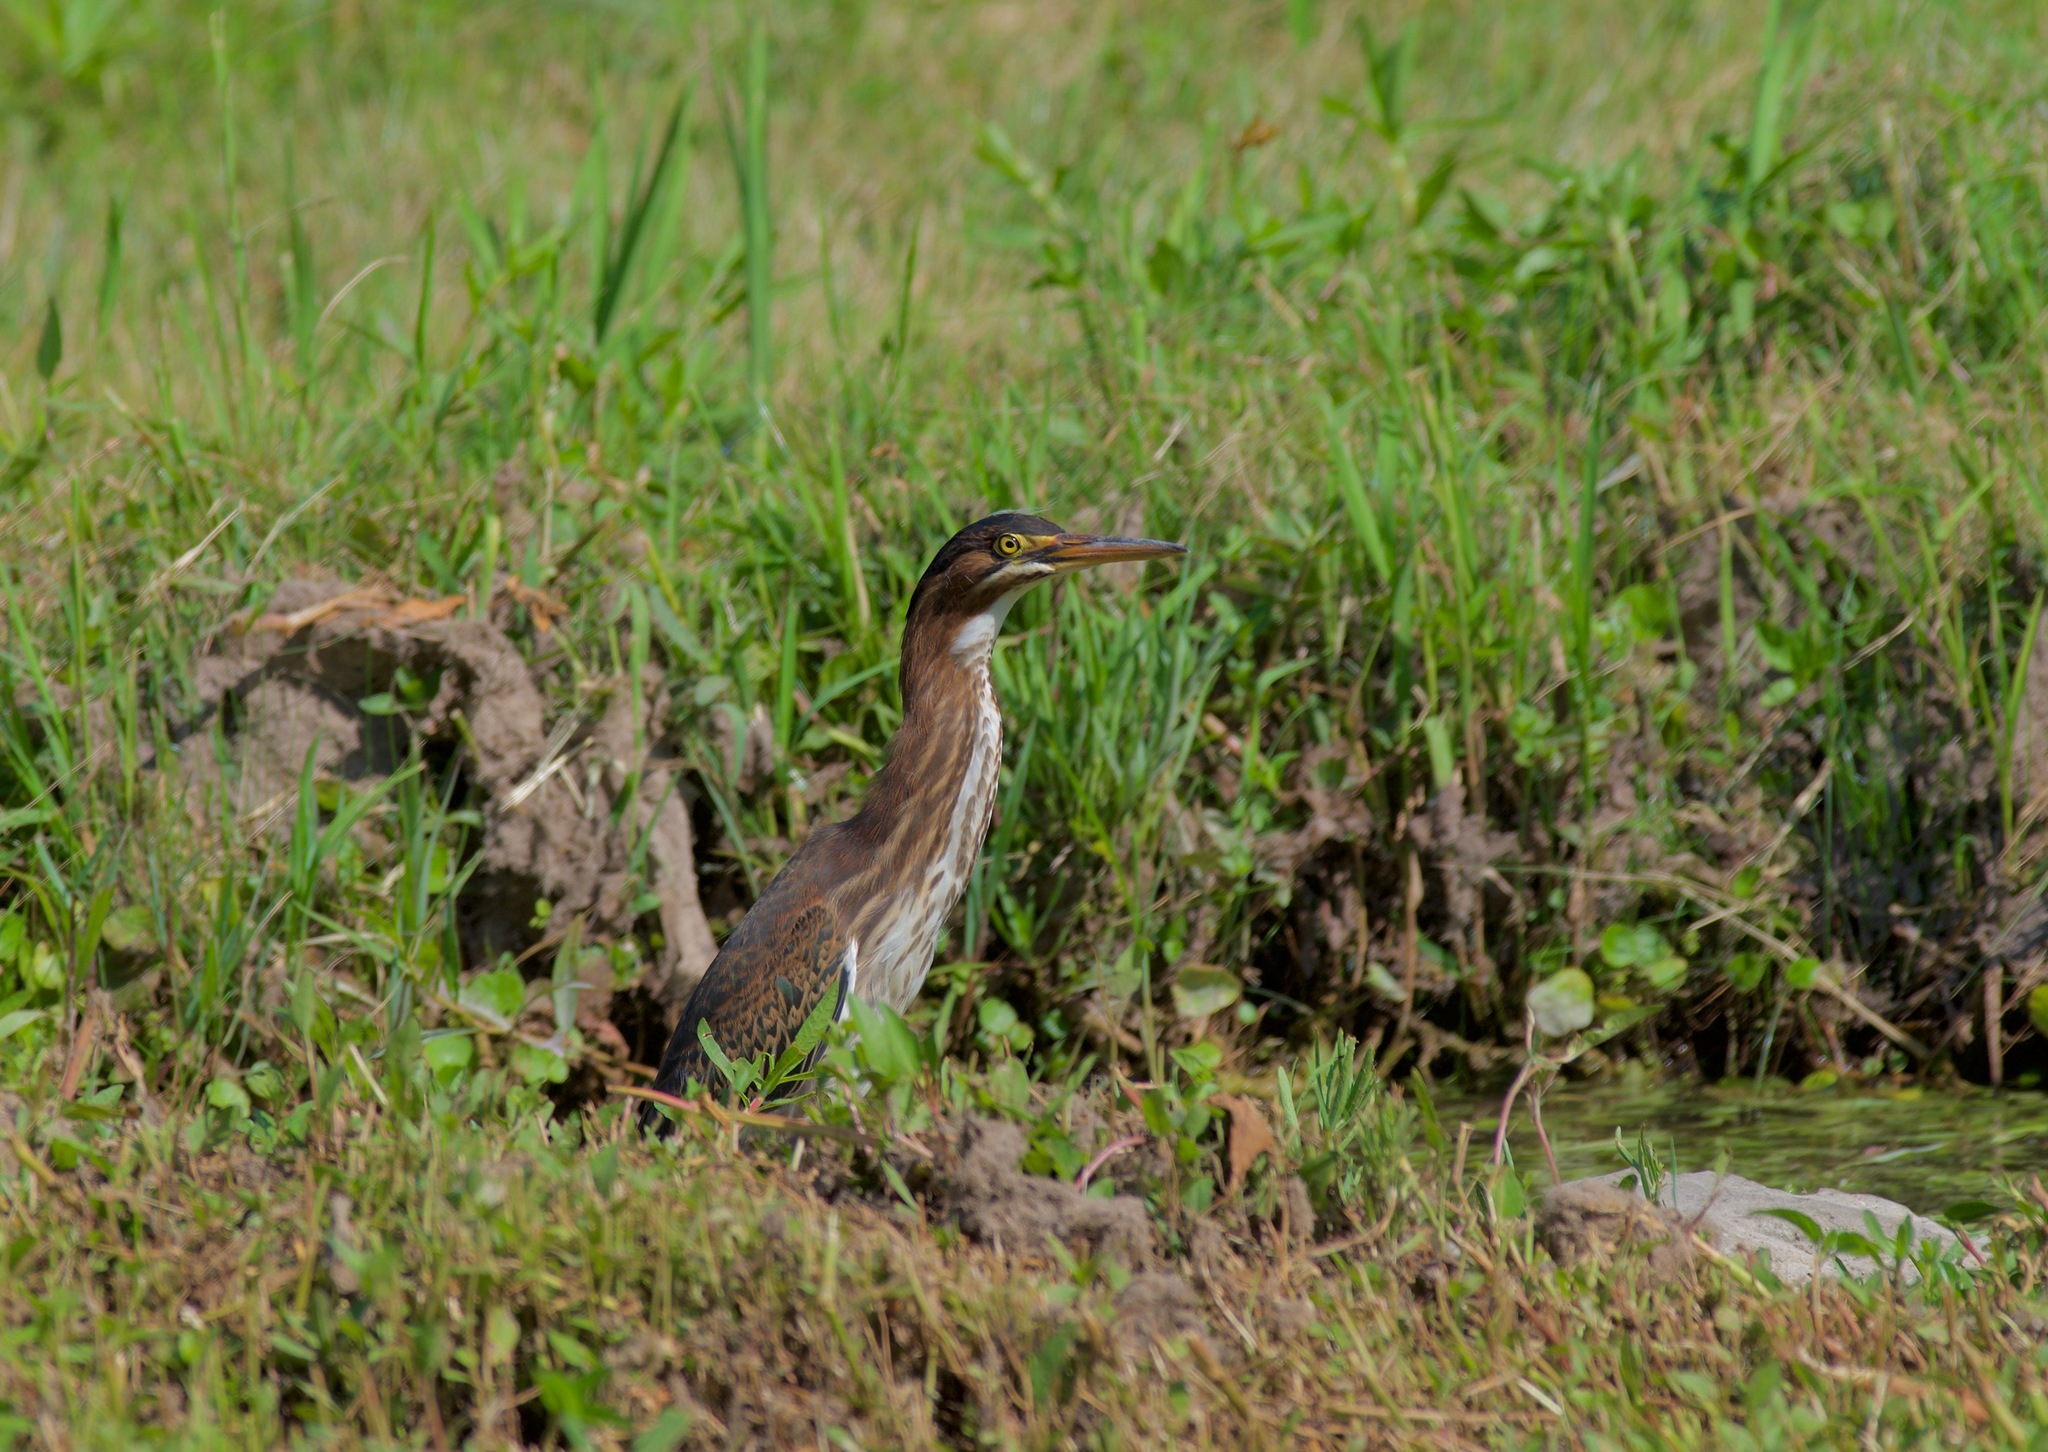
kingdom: Animalia
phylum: Chordata
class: Aves
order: Pelecaniformes
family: Ardeidae
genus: Butorides
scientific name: Butorides virescens
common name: Green heron
